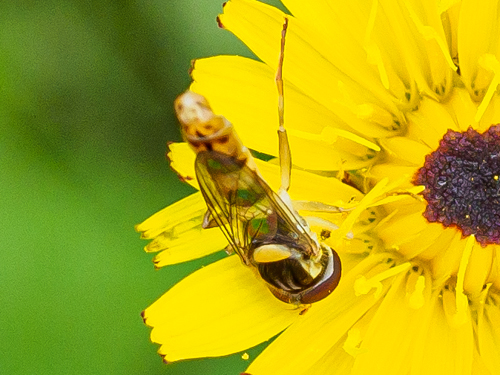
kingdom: Animalia
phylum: Arthropoda
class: Insecta
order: Diptera
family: Syrphidae
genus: Sphaerophoria
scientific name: Sphaerophoria scripta
